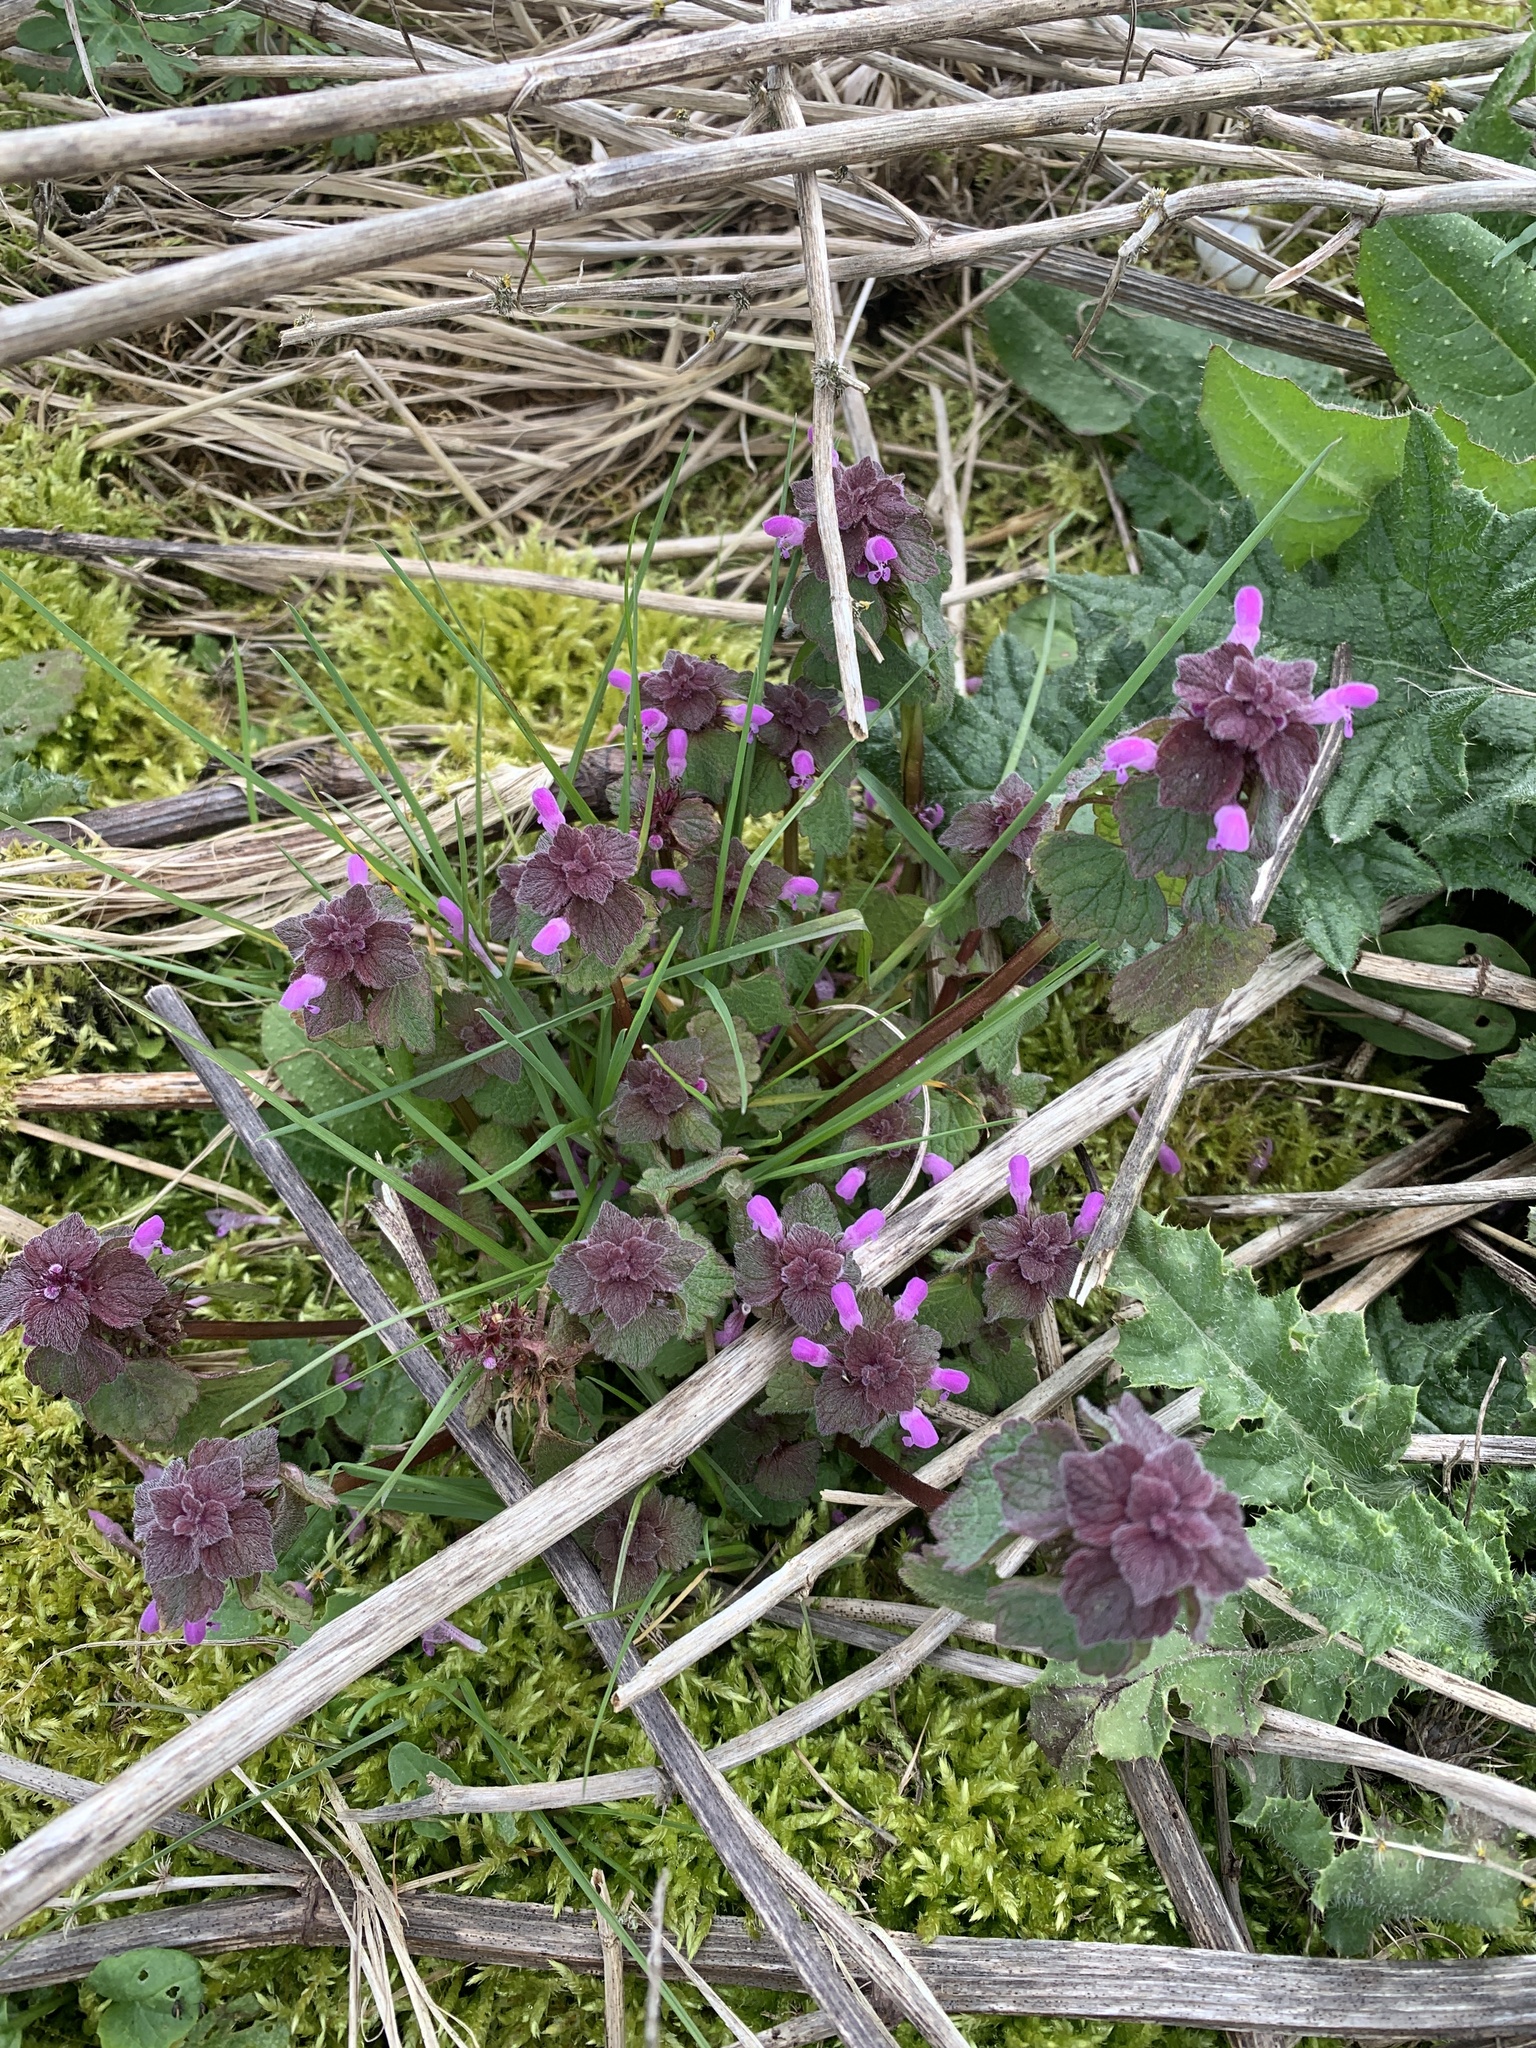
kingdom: Plantae
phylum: Tracheophyta
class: Magnoliopsida
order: Lamiales
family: Lamiaceae
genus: Lamium
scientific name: Lamium purpureum
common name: Red dead-nettle
